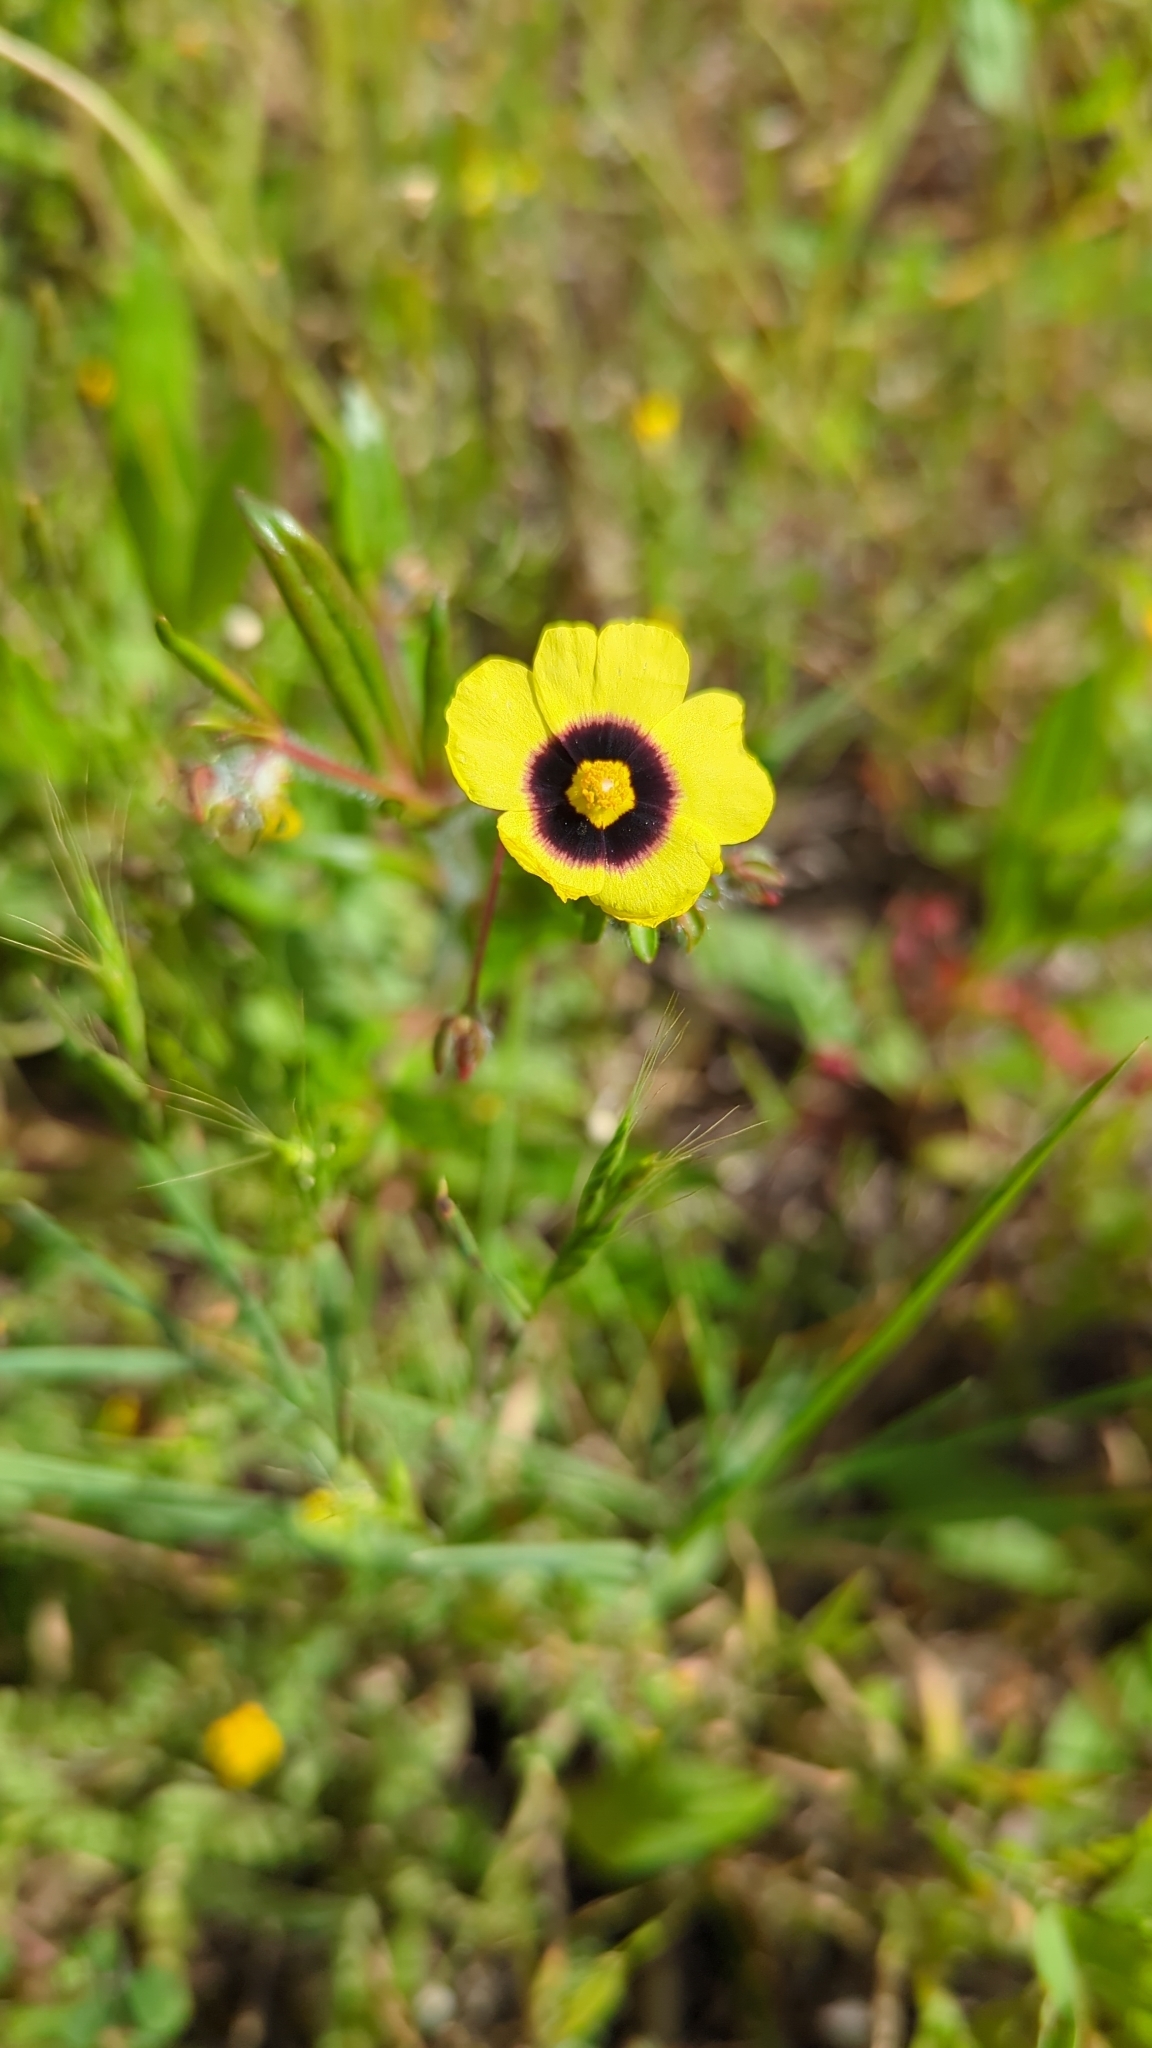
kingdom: Plantae
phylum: Tracheophyta
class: Magnoliopsida
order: Malvales
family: Cistaceae
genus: Tuberaria
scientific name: Tuberaria guttata
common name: Spotted rock-rose
